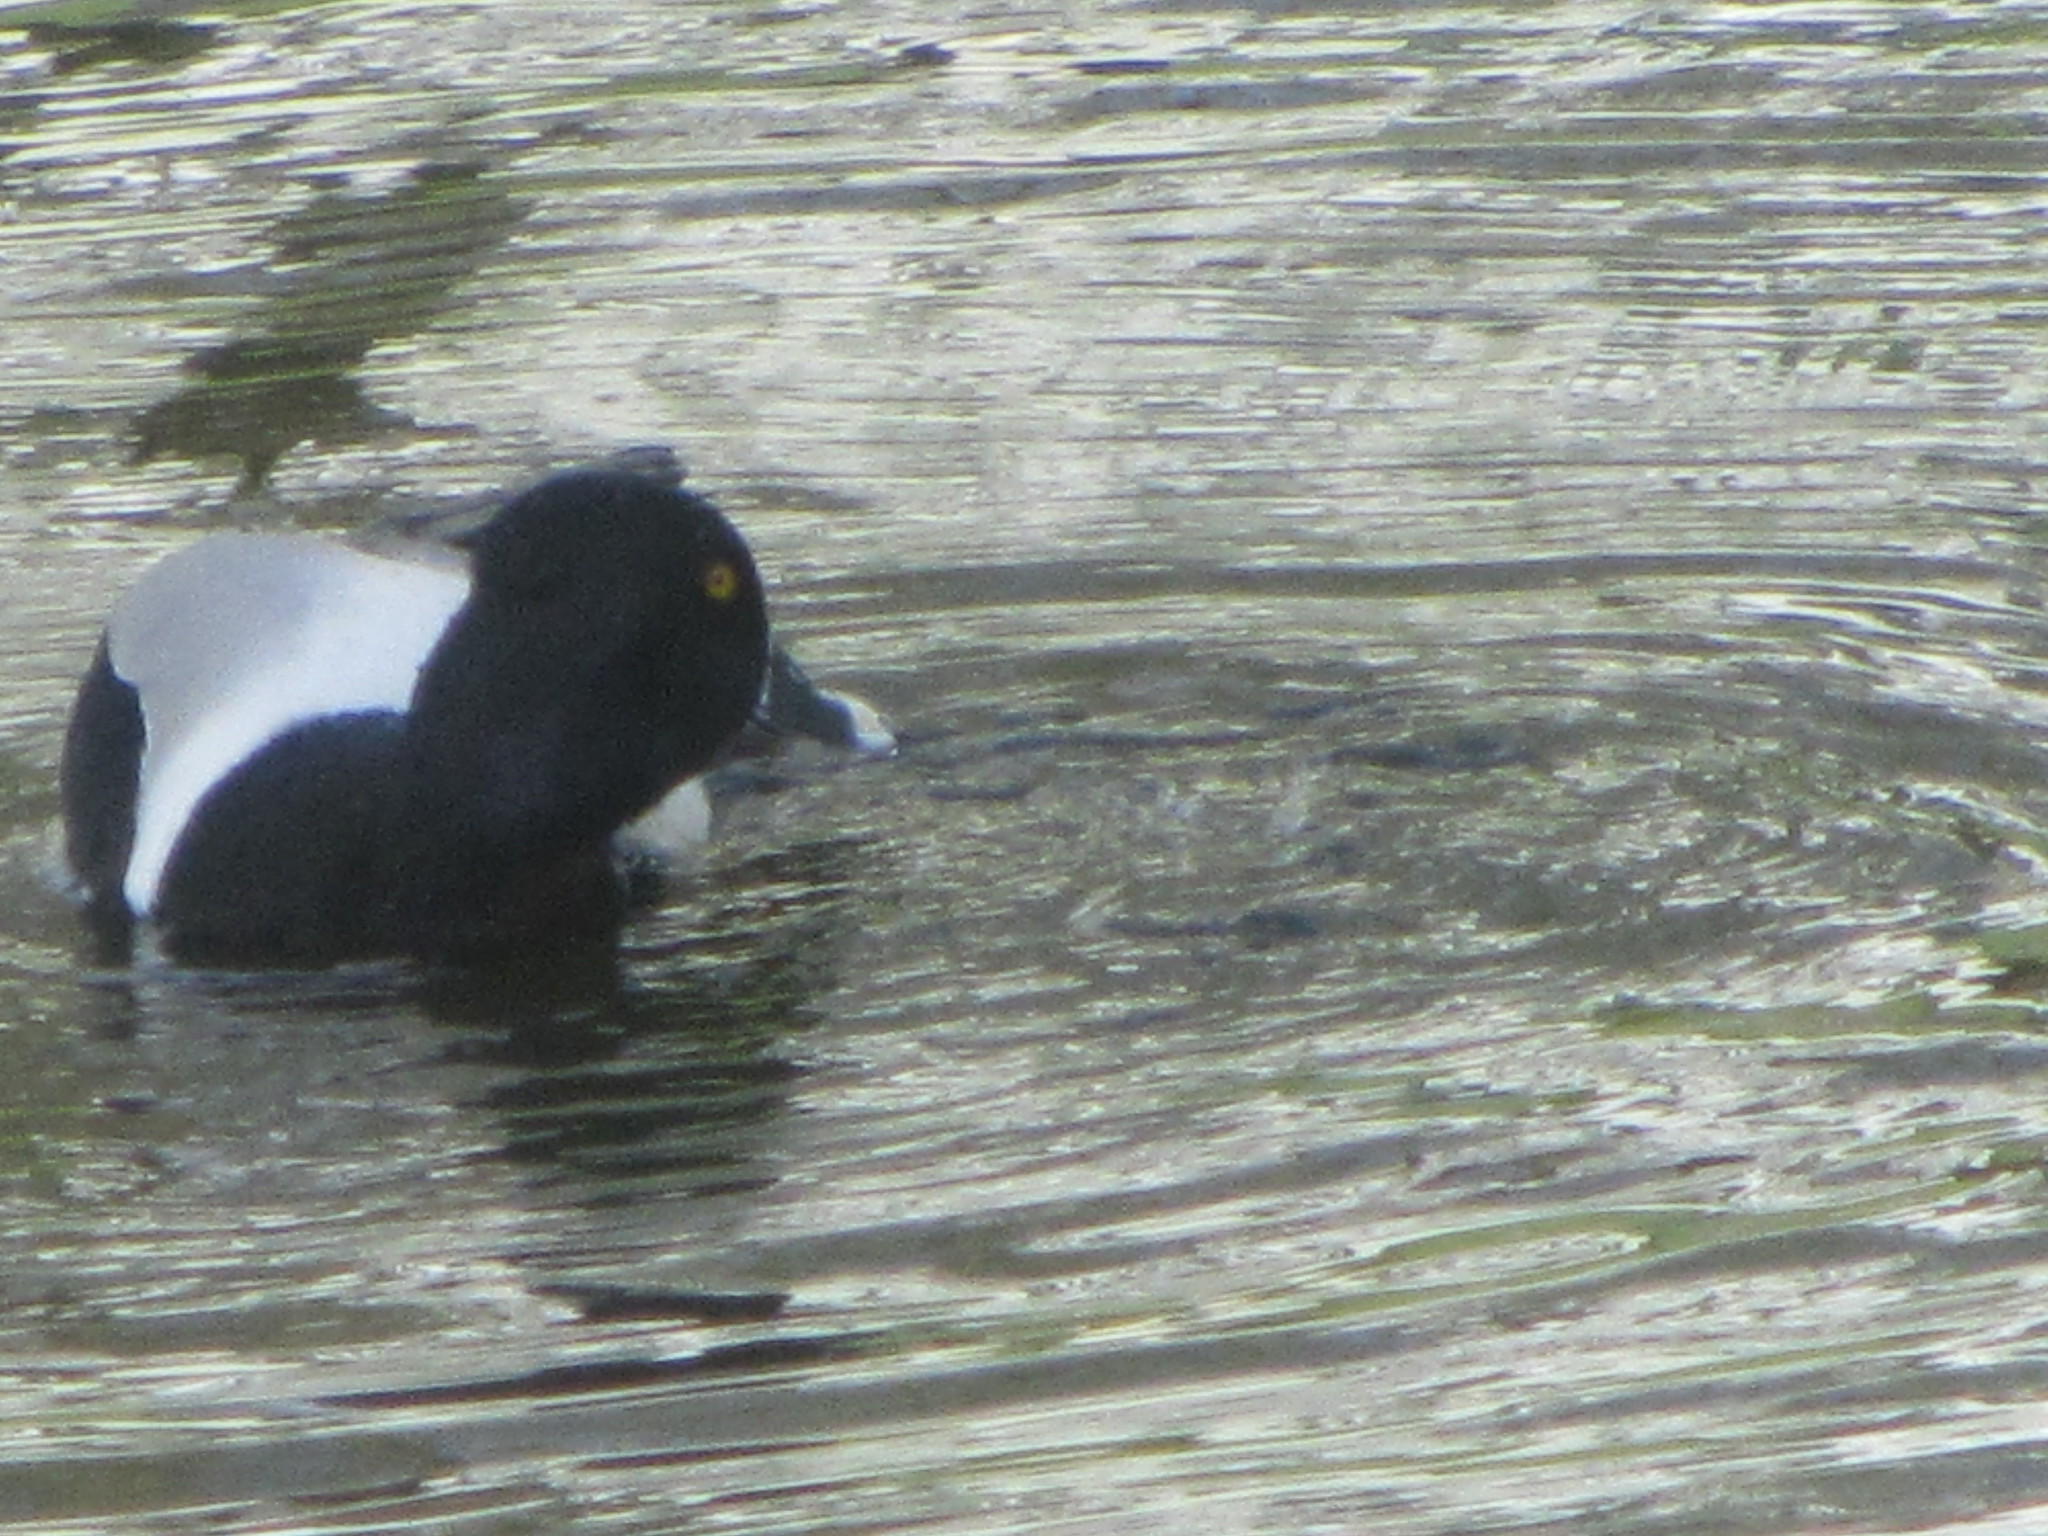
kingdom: Animalia
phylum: Chordata
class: Aves
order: Anseriformes
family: Anatidae
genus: Aythya
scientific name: Aythya collaris
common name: Ring-necked duck
